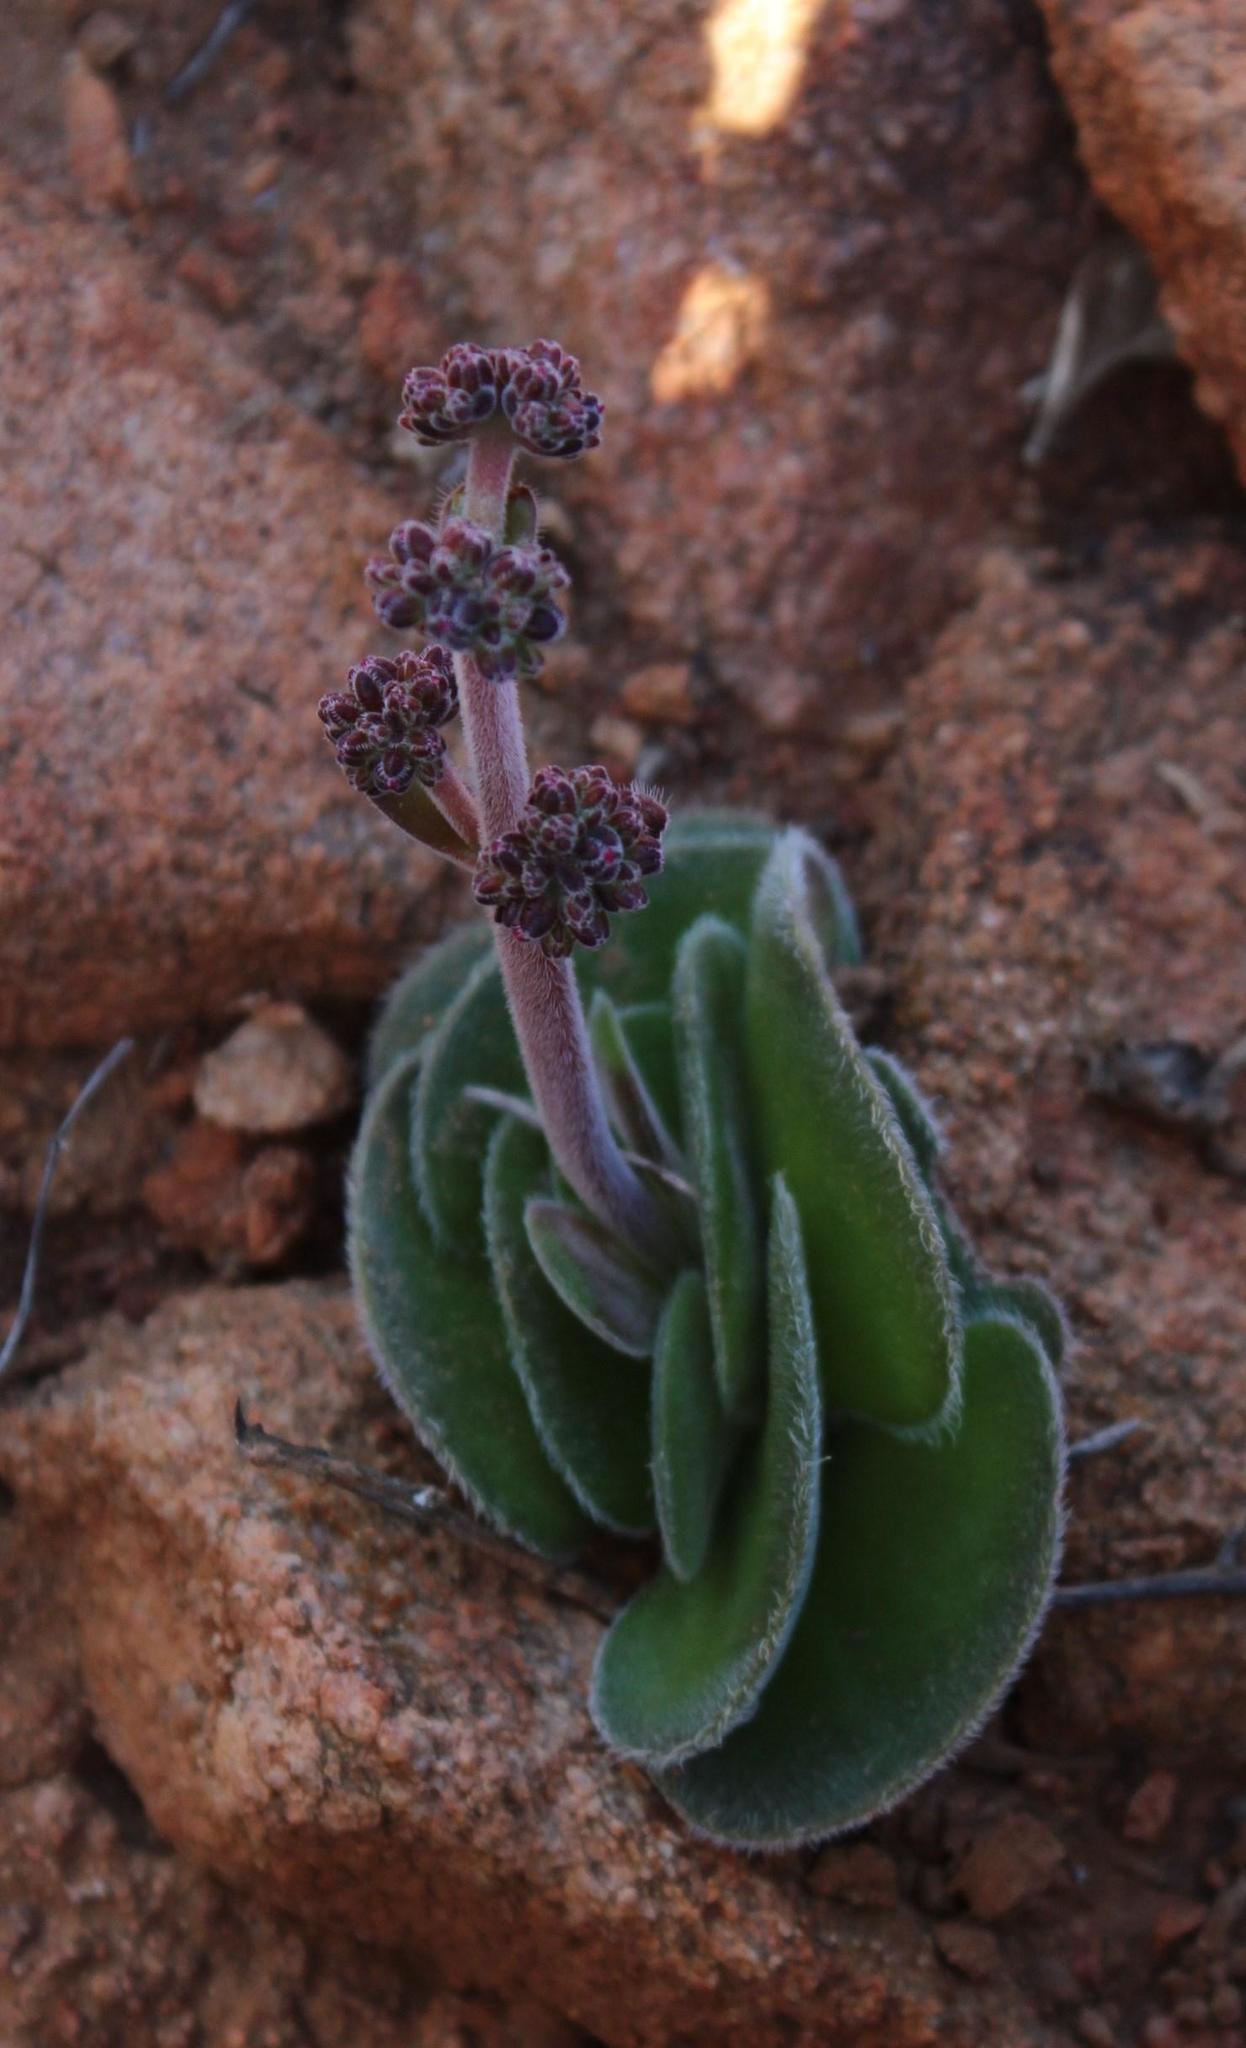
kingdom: Plantae
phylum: Tracheophyta
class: Magnoliopsida
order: Saxifragales
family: Crassulaceae
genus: Crassula
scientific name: Crassula tomentosa
